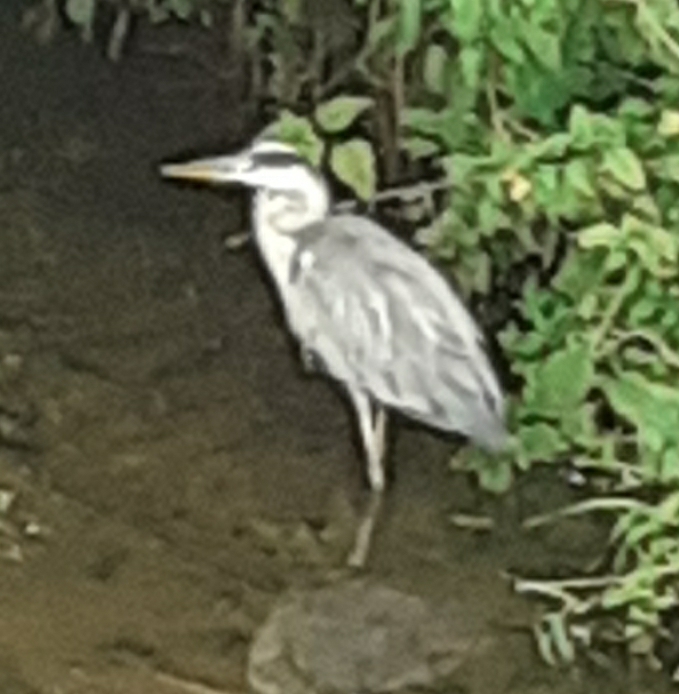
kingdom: Animalia
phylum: Chordata
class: Aves
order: Pelecaniformes
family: Ardeidae
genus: Ardea
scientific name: Ardea cinerea
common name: Grey heron
